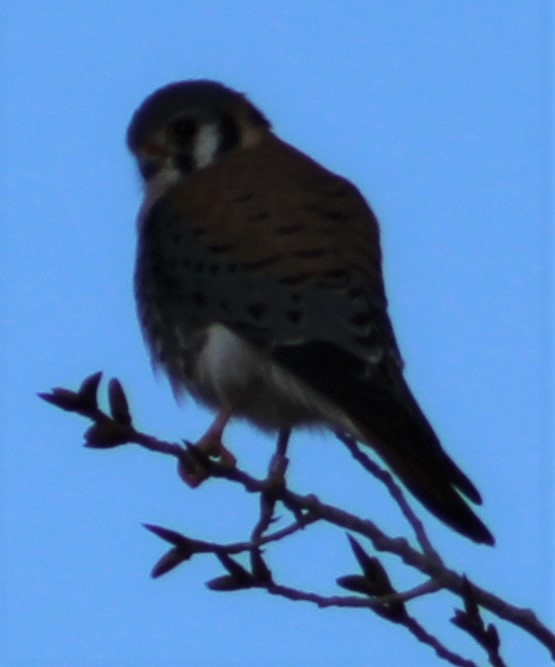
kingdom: Animalia
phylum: Chordata
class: Aves
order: Falconiformes
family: Falconidae
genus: Falco
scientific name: Falco sparverius
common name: American kestrel
